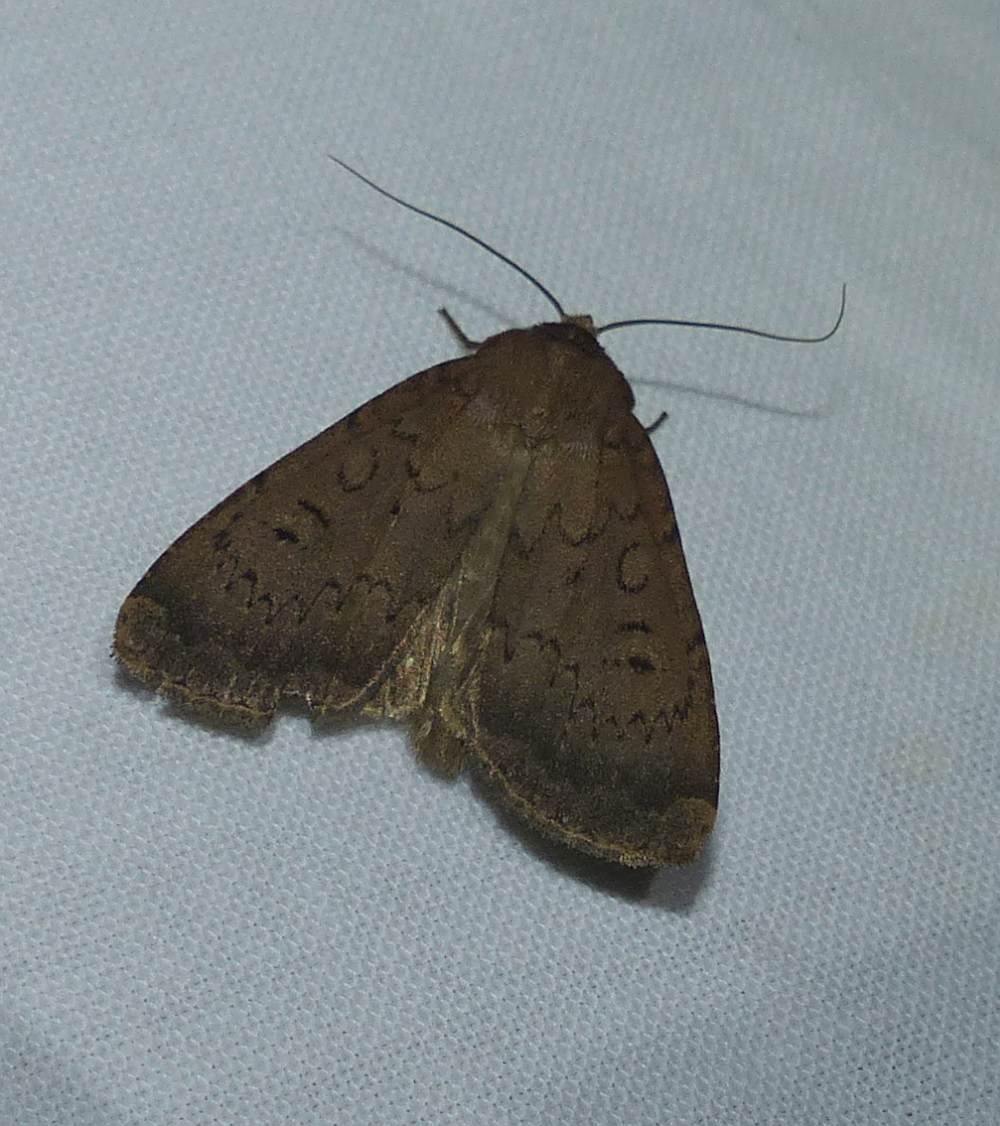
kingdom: Animalia
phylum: Arthropoda
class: Insecta
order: Lepidoptera
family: Noctuidae
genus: Graphiphora
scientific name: Graphiphora augur
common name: Double dart
